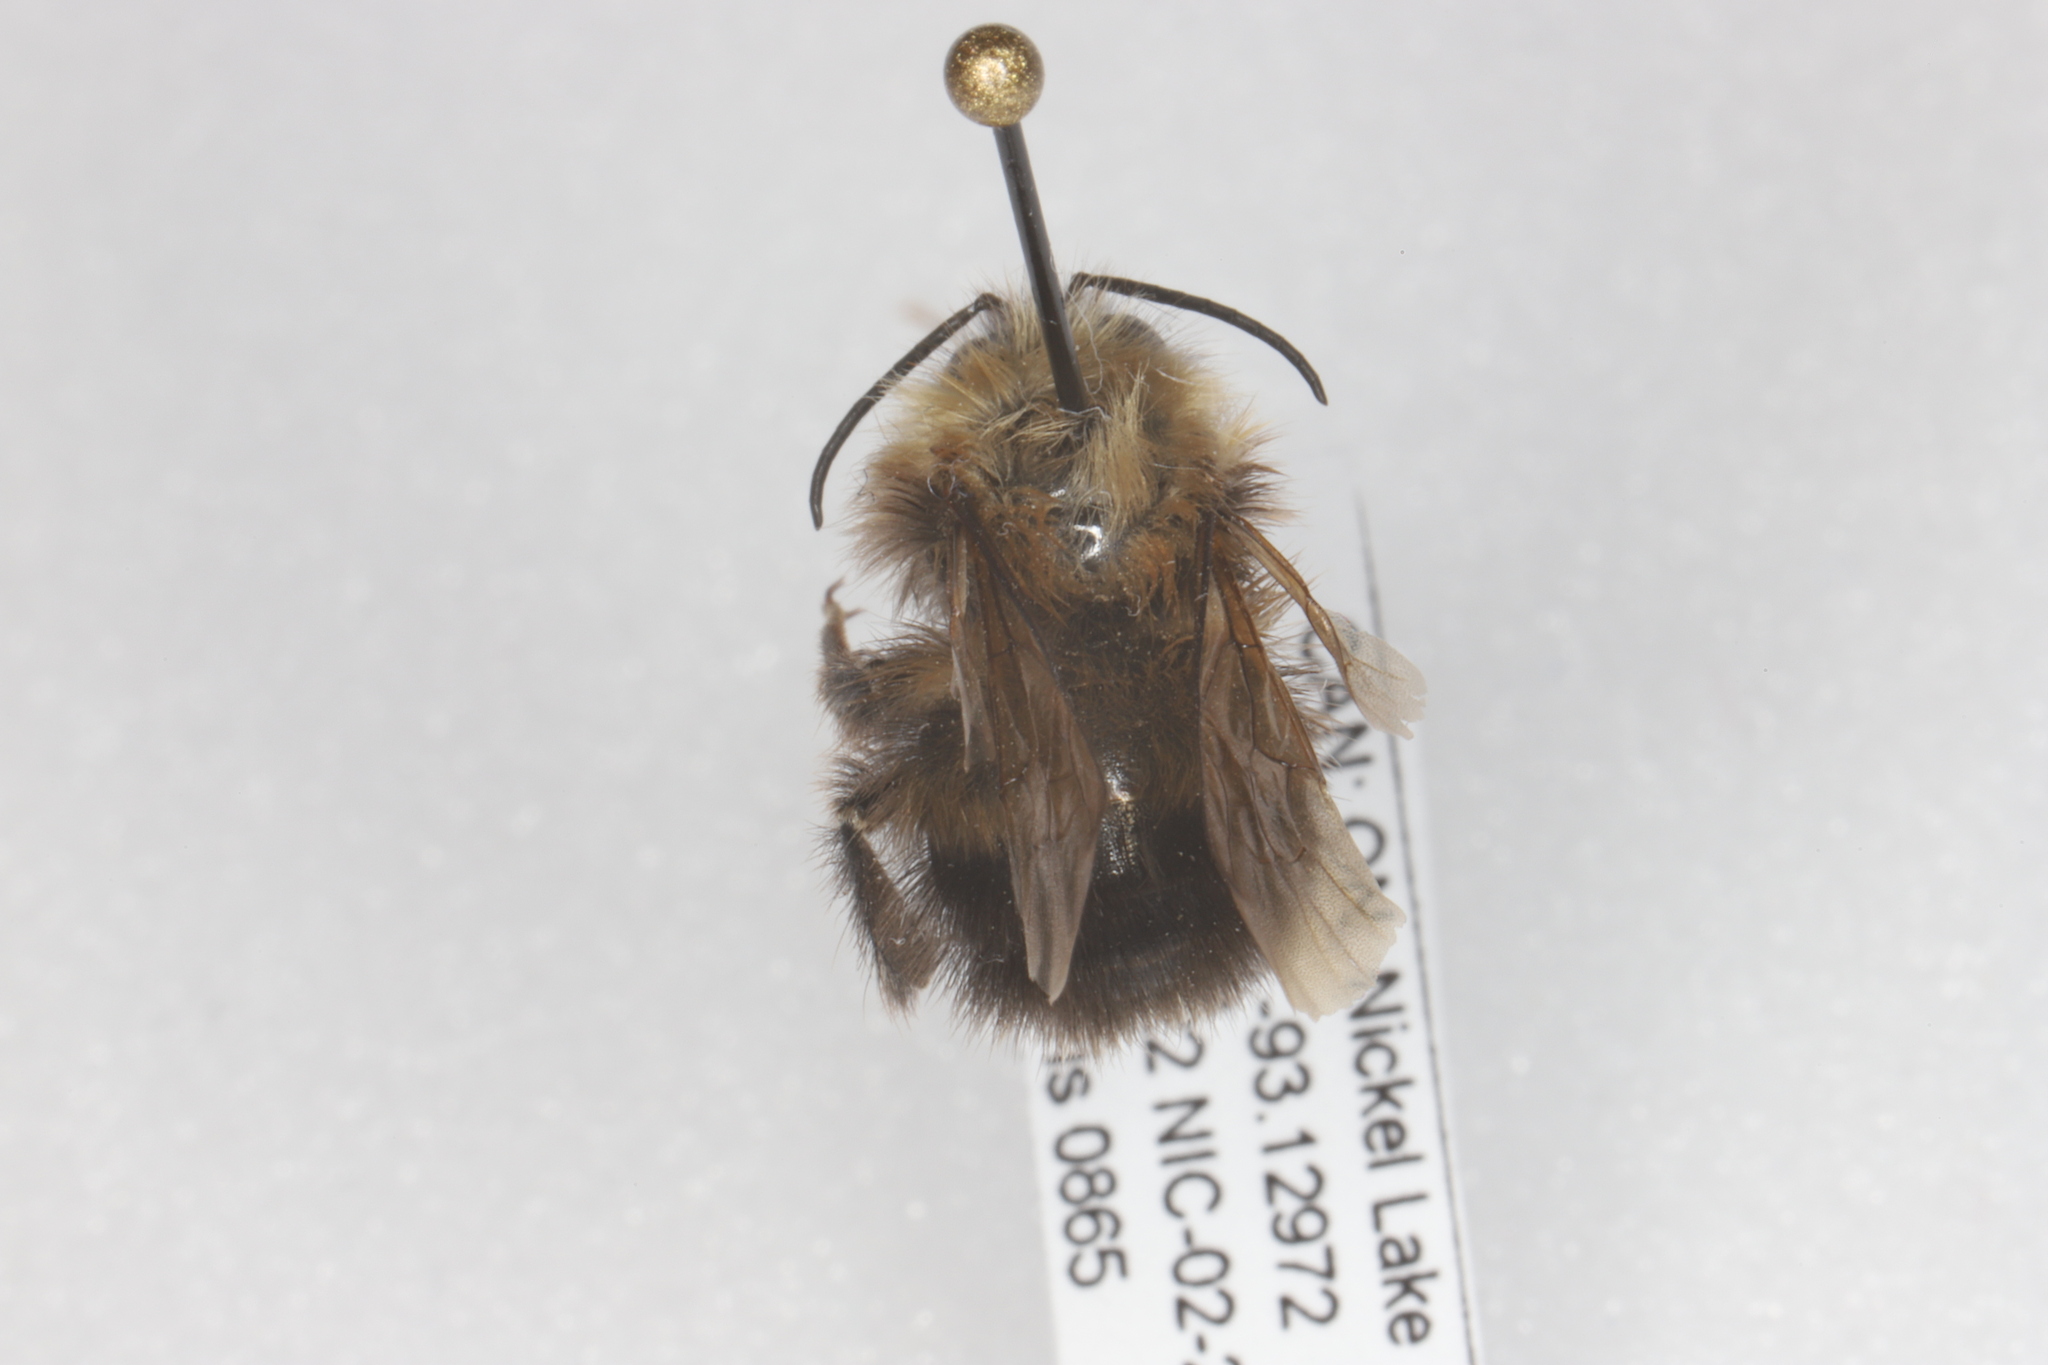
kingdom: Animalia
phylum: Arthropoda
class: Insecta
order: Hymenoptera
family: Apidae
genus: Bombus
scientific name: Bombus perplexus
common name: Confusing bumble bee
